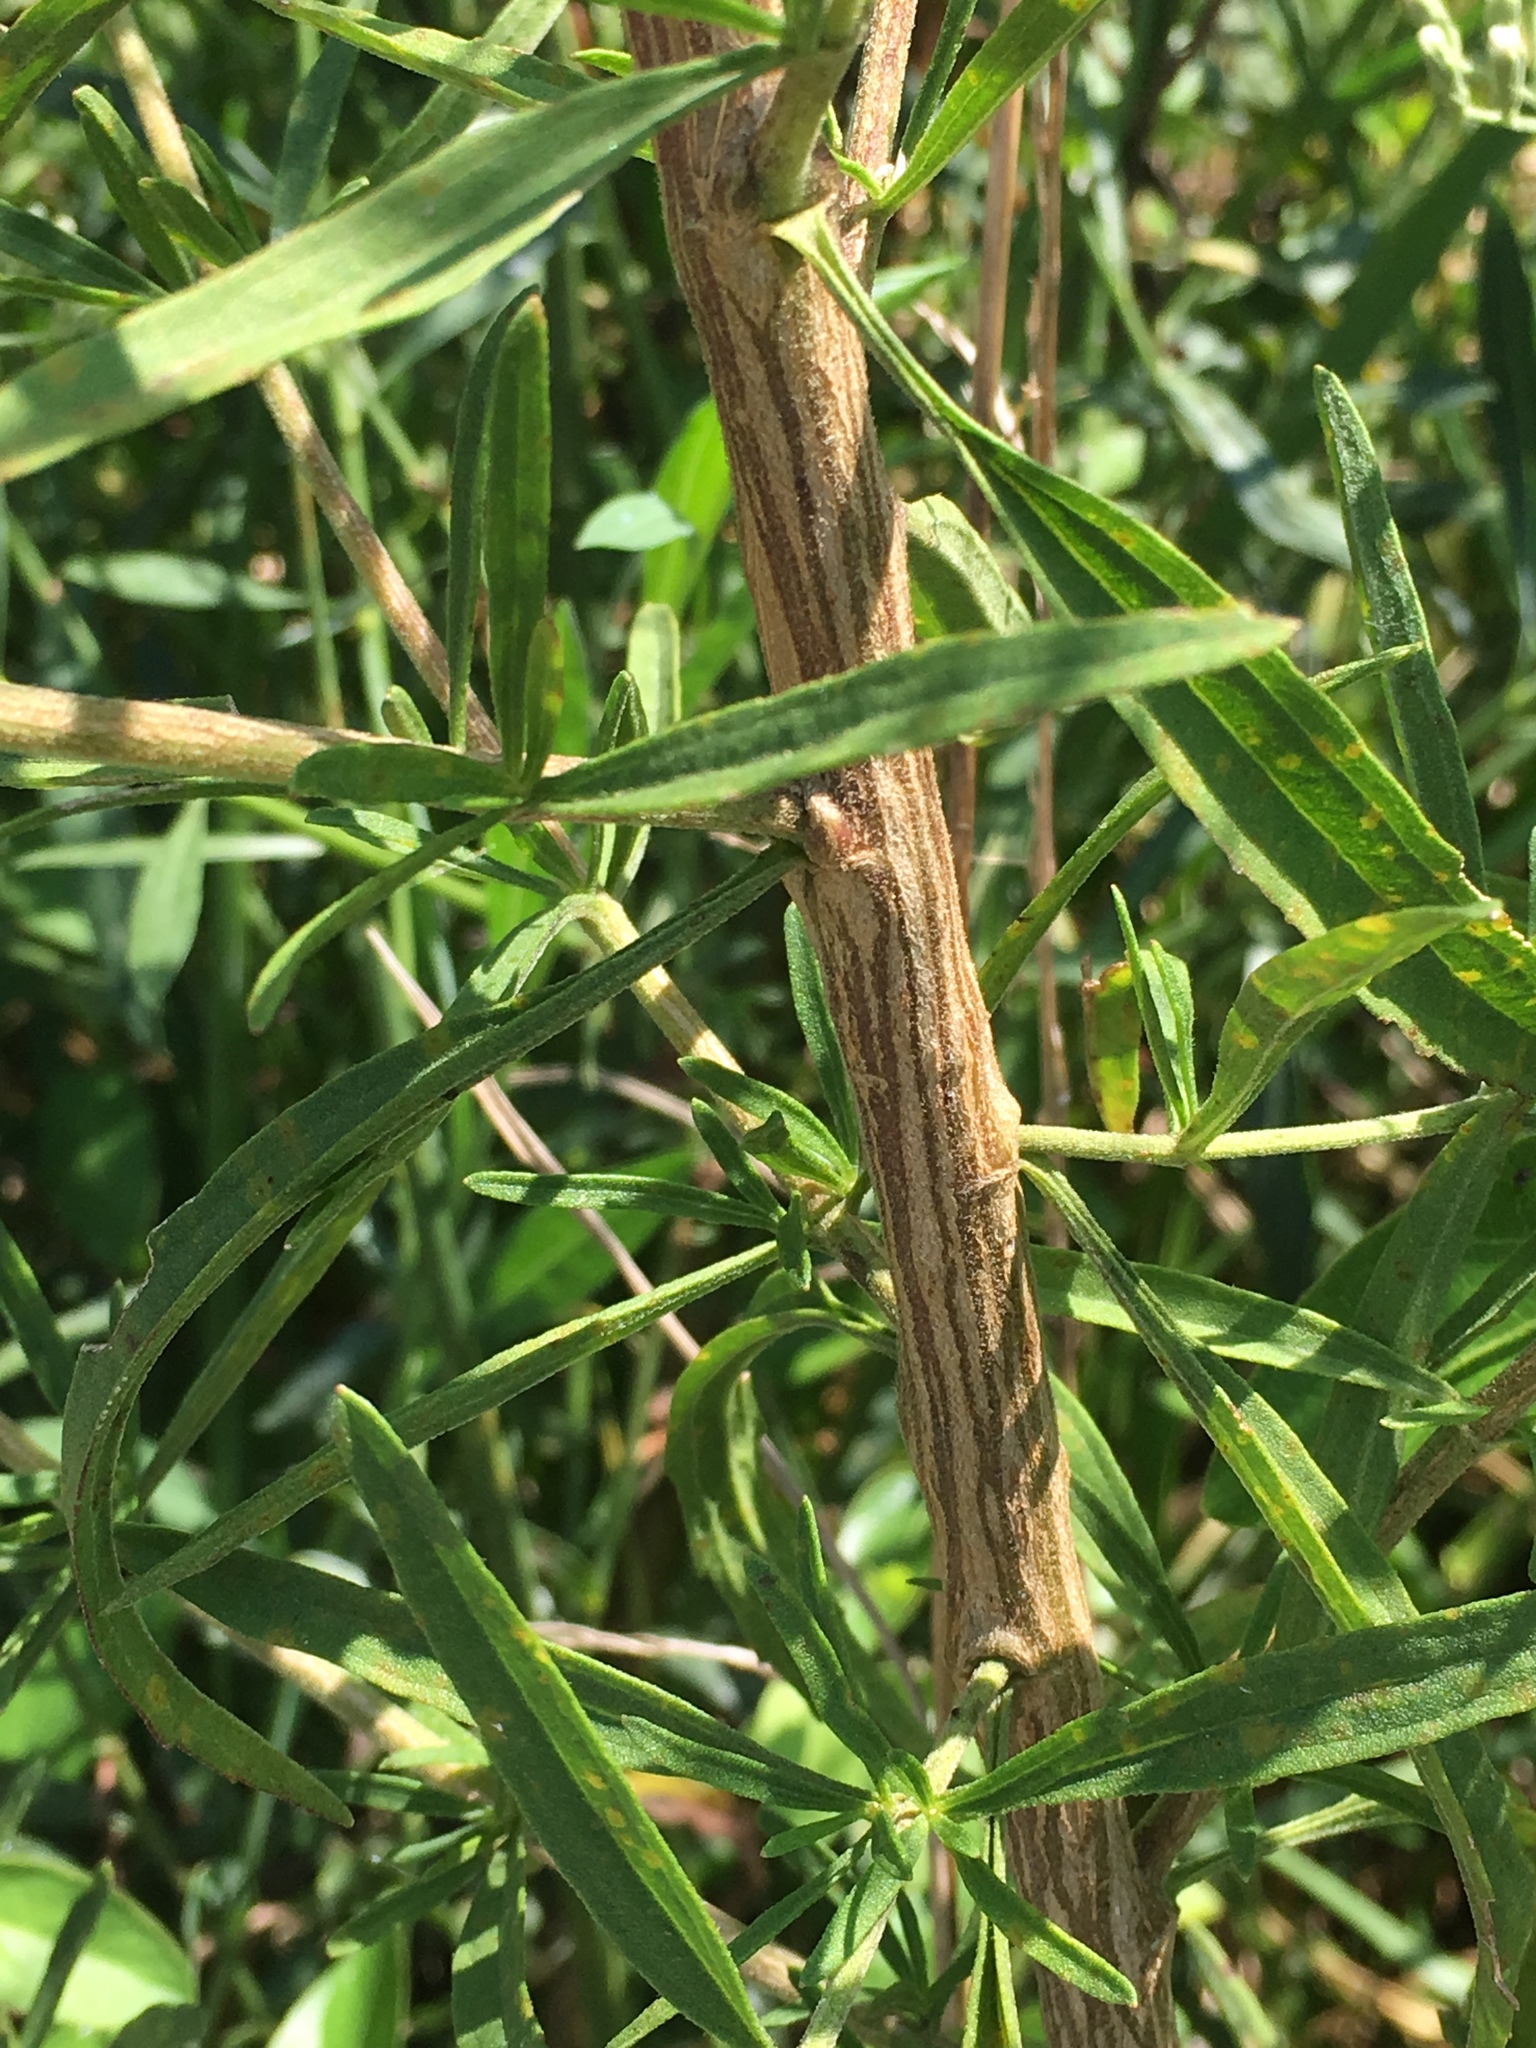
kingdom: Plantae
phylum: Tracheophyta
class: Magnoliopsida
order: Asterales
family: Asteraceae
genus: Eupatorium
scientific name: Eupatorium hyssopifolium
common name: Hyssop-leaf thoroughwort
